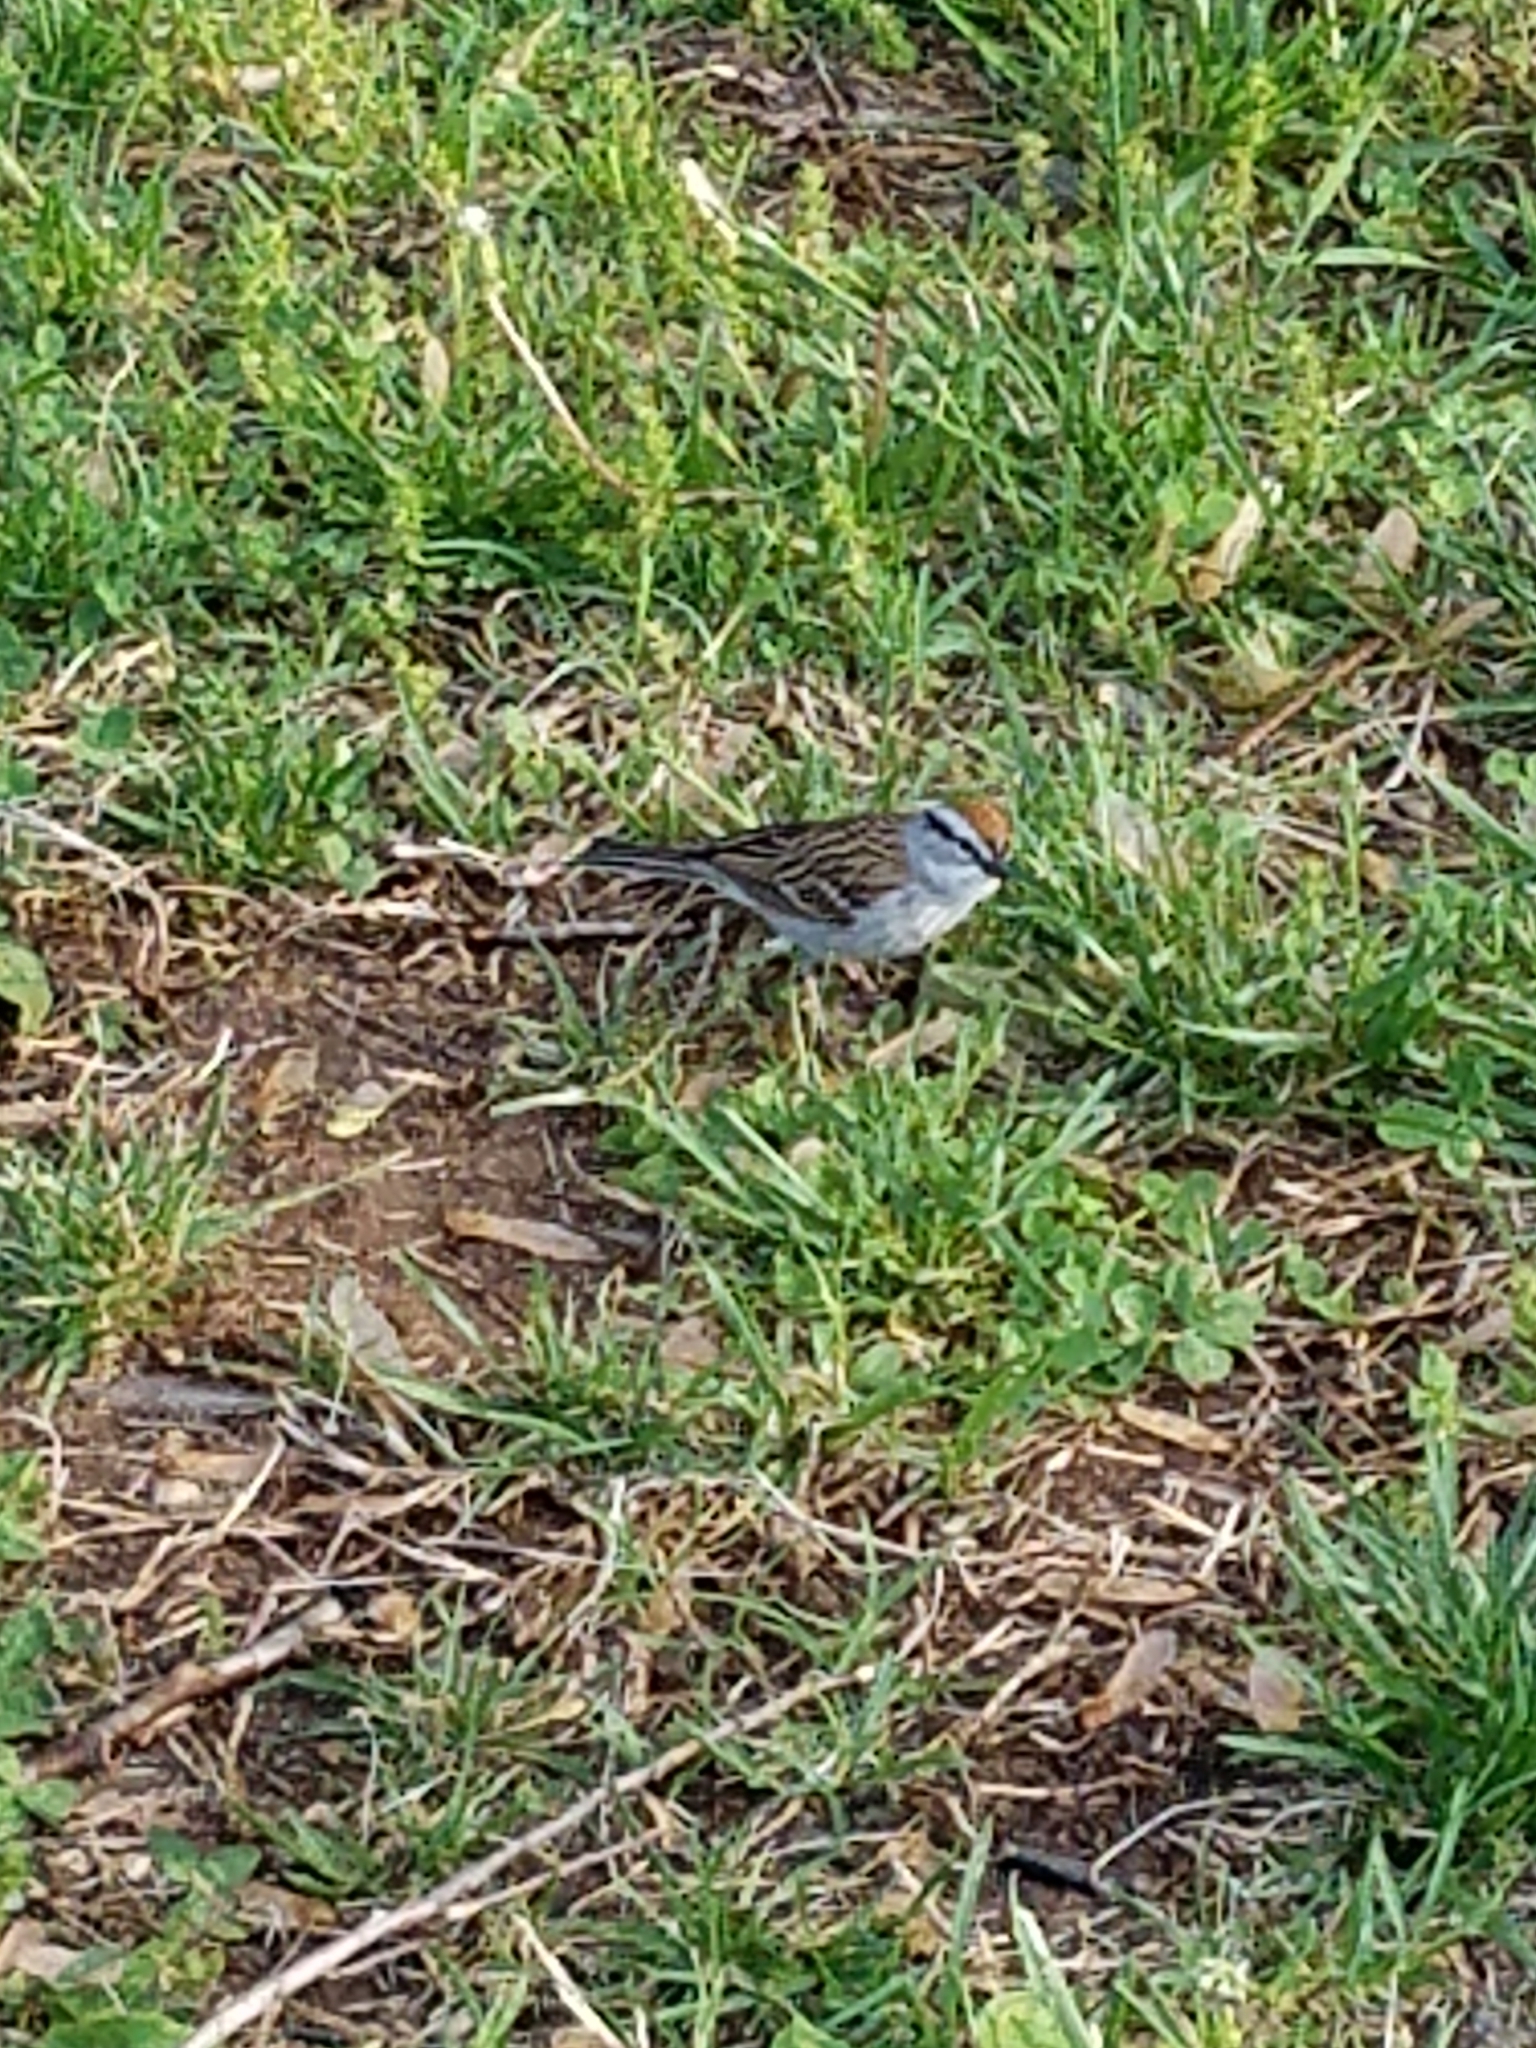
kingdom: Animalia
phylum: Chordata
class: Aves
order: Passeriformes
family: Passerellidae
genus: Spizella
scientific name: Spizella passerina
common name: Chipping sparrow
